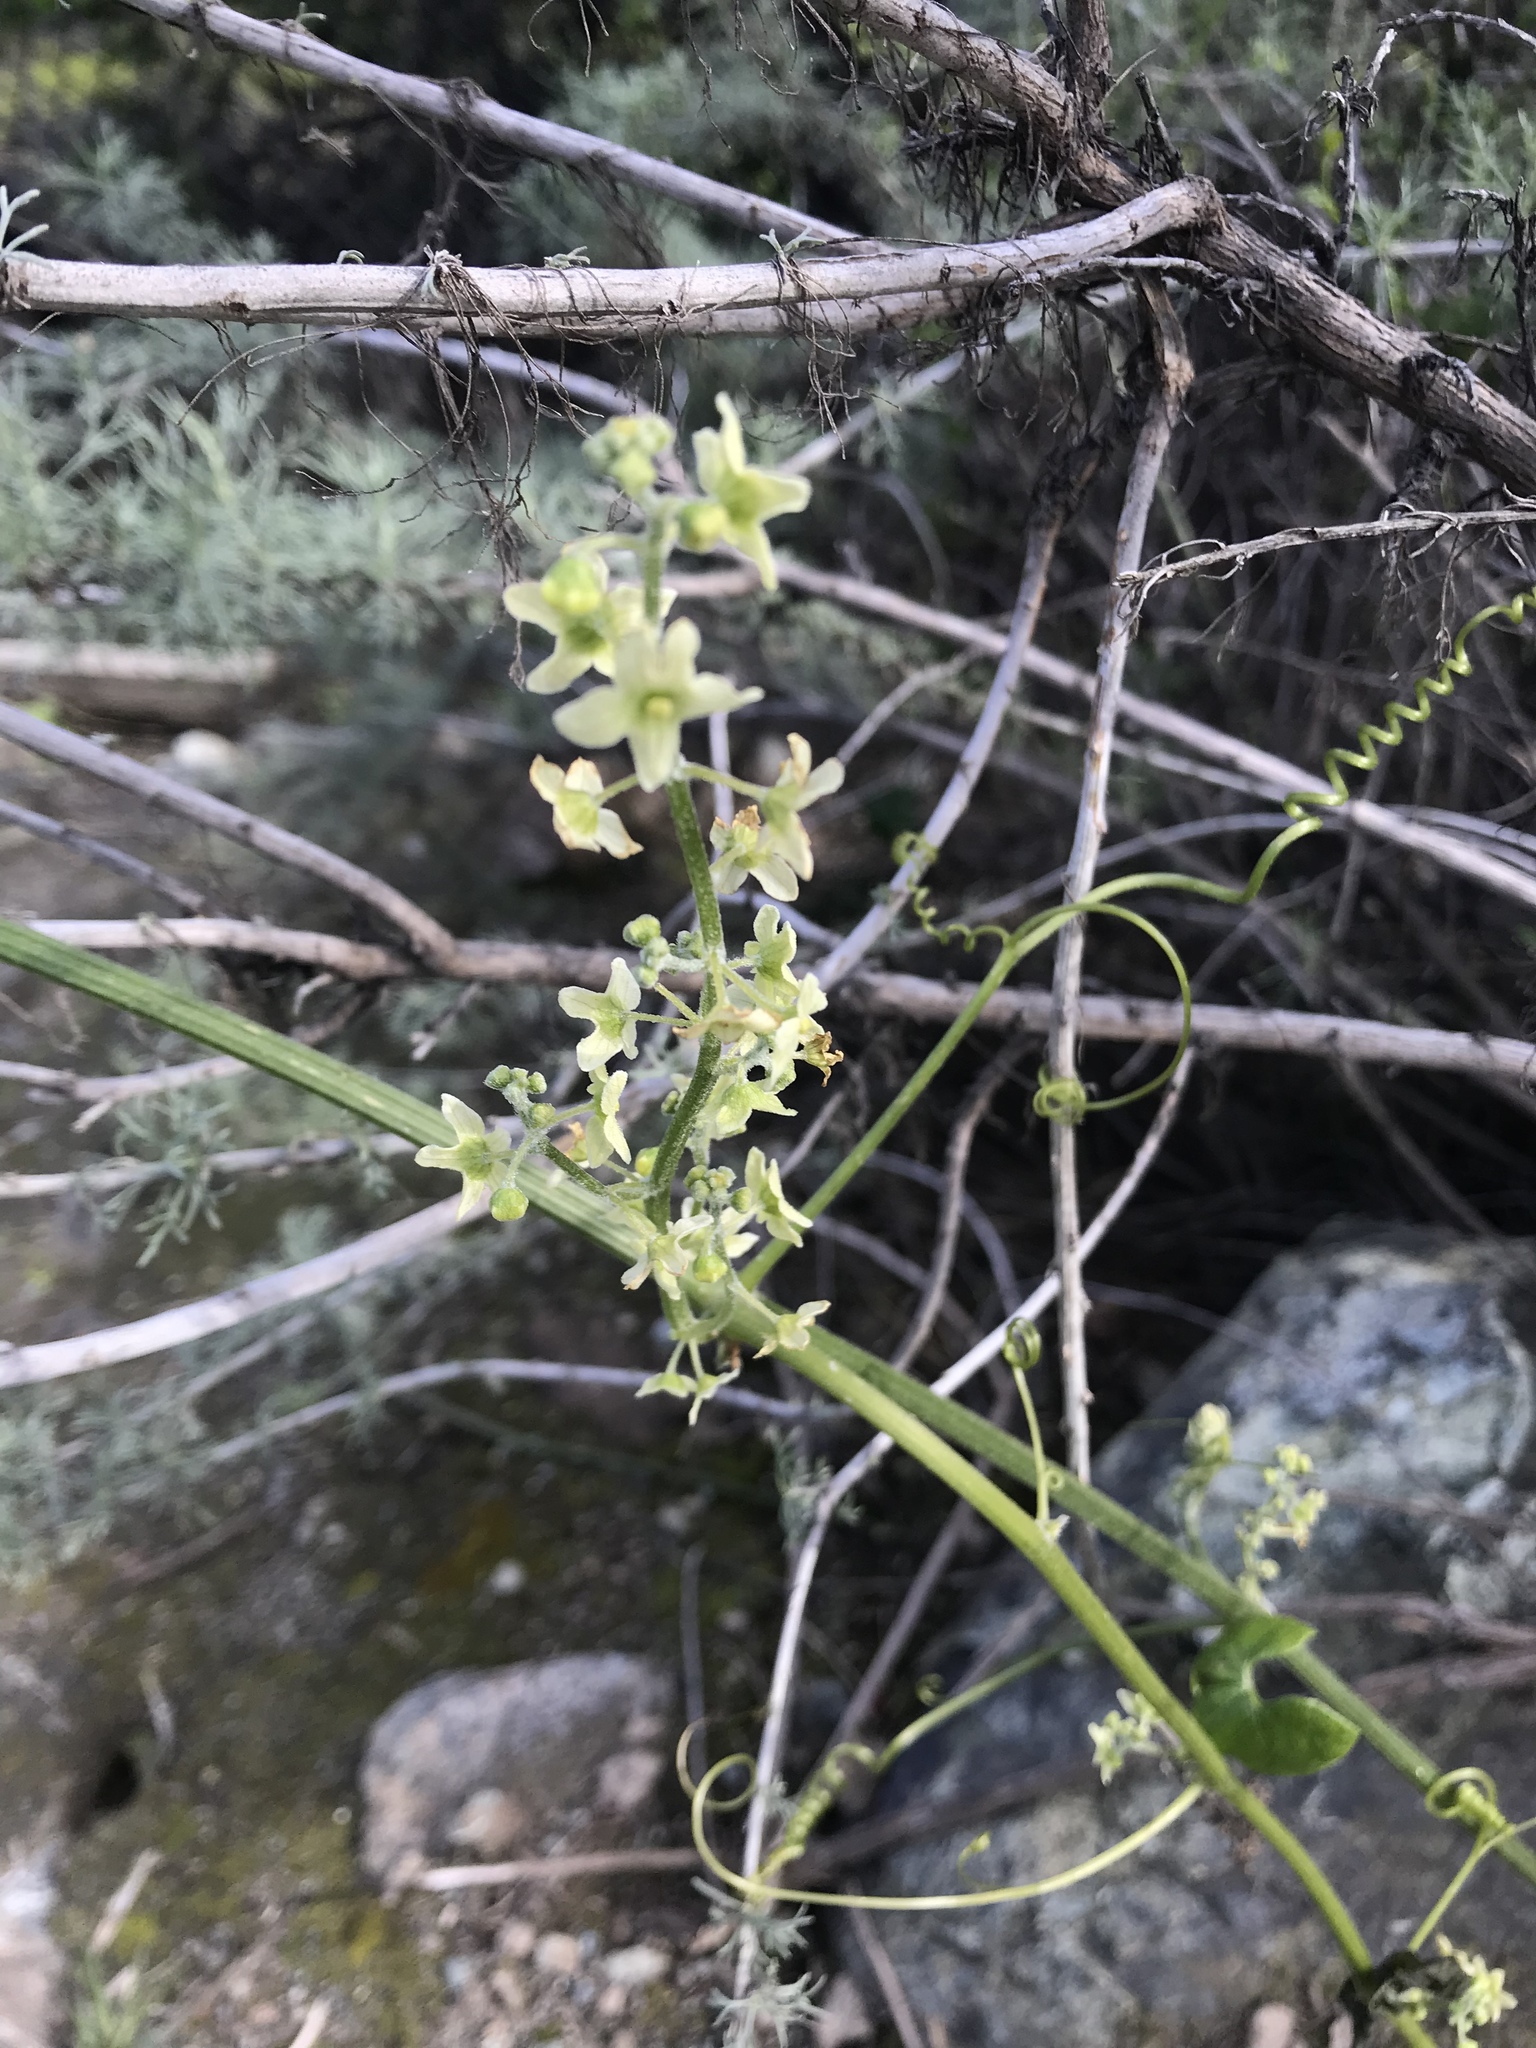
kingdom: Plantae
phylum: Tracheophyta
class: Magnoliopsida
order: Cucurbitales
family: Cucurbitaceae
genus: Marah
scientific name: Marah fabacea
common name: California manroot
